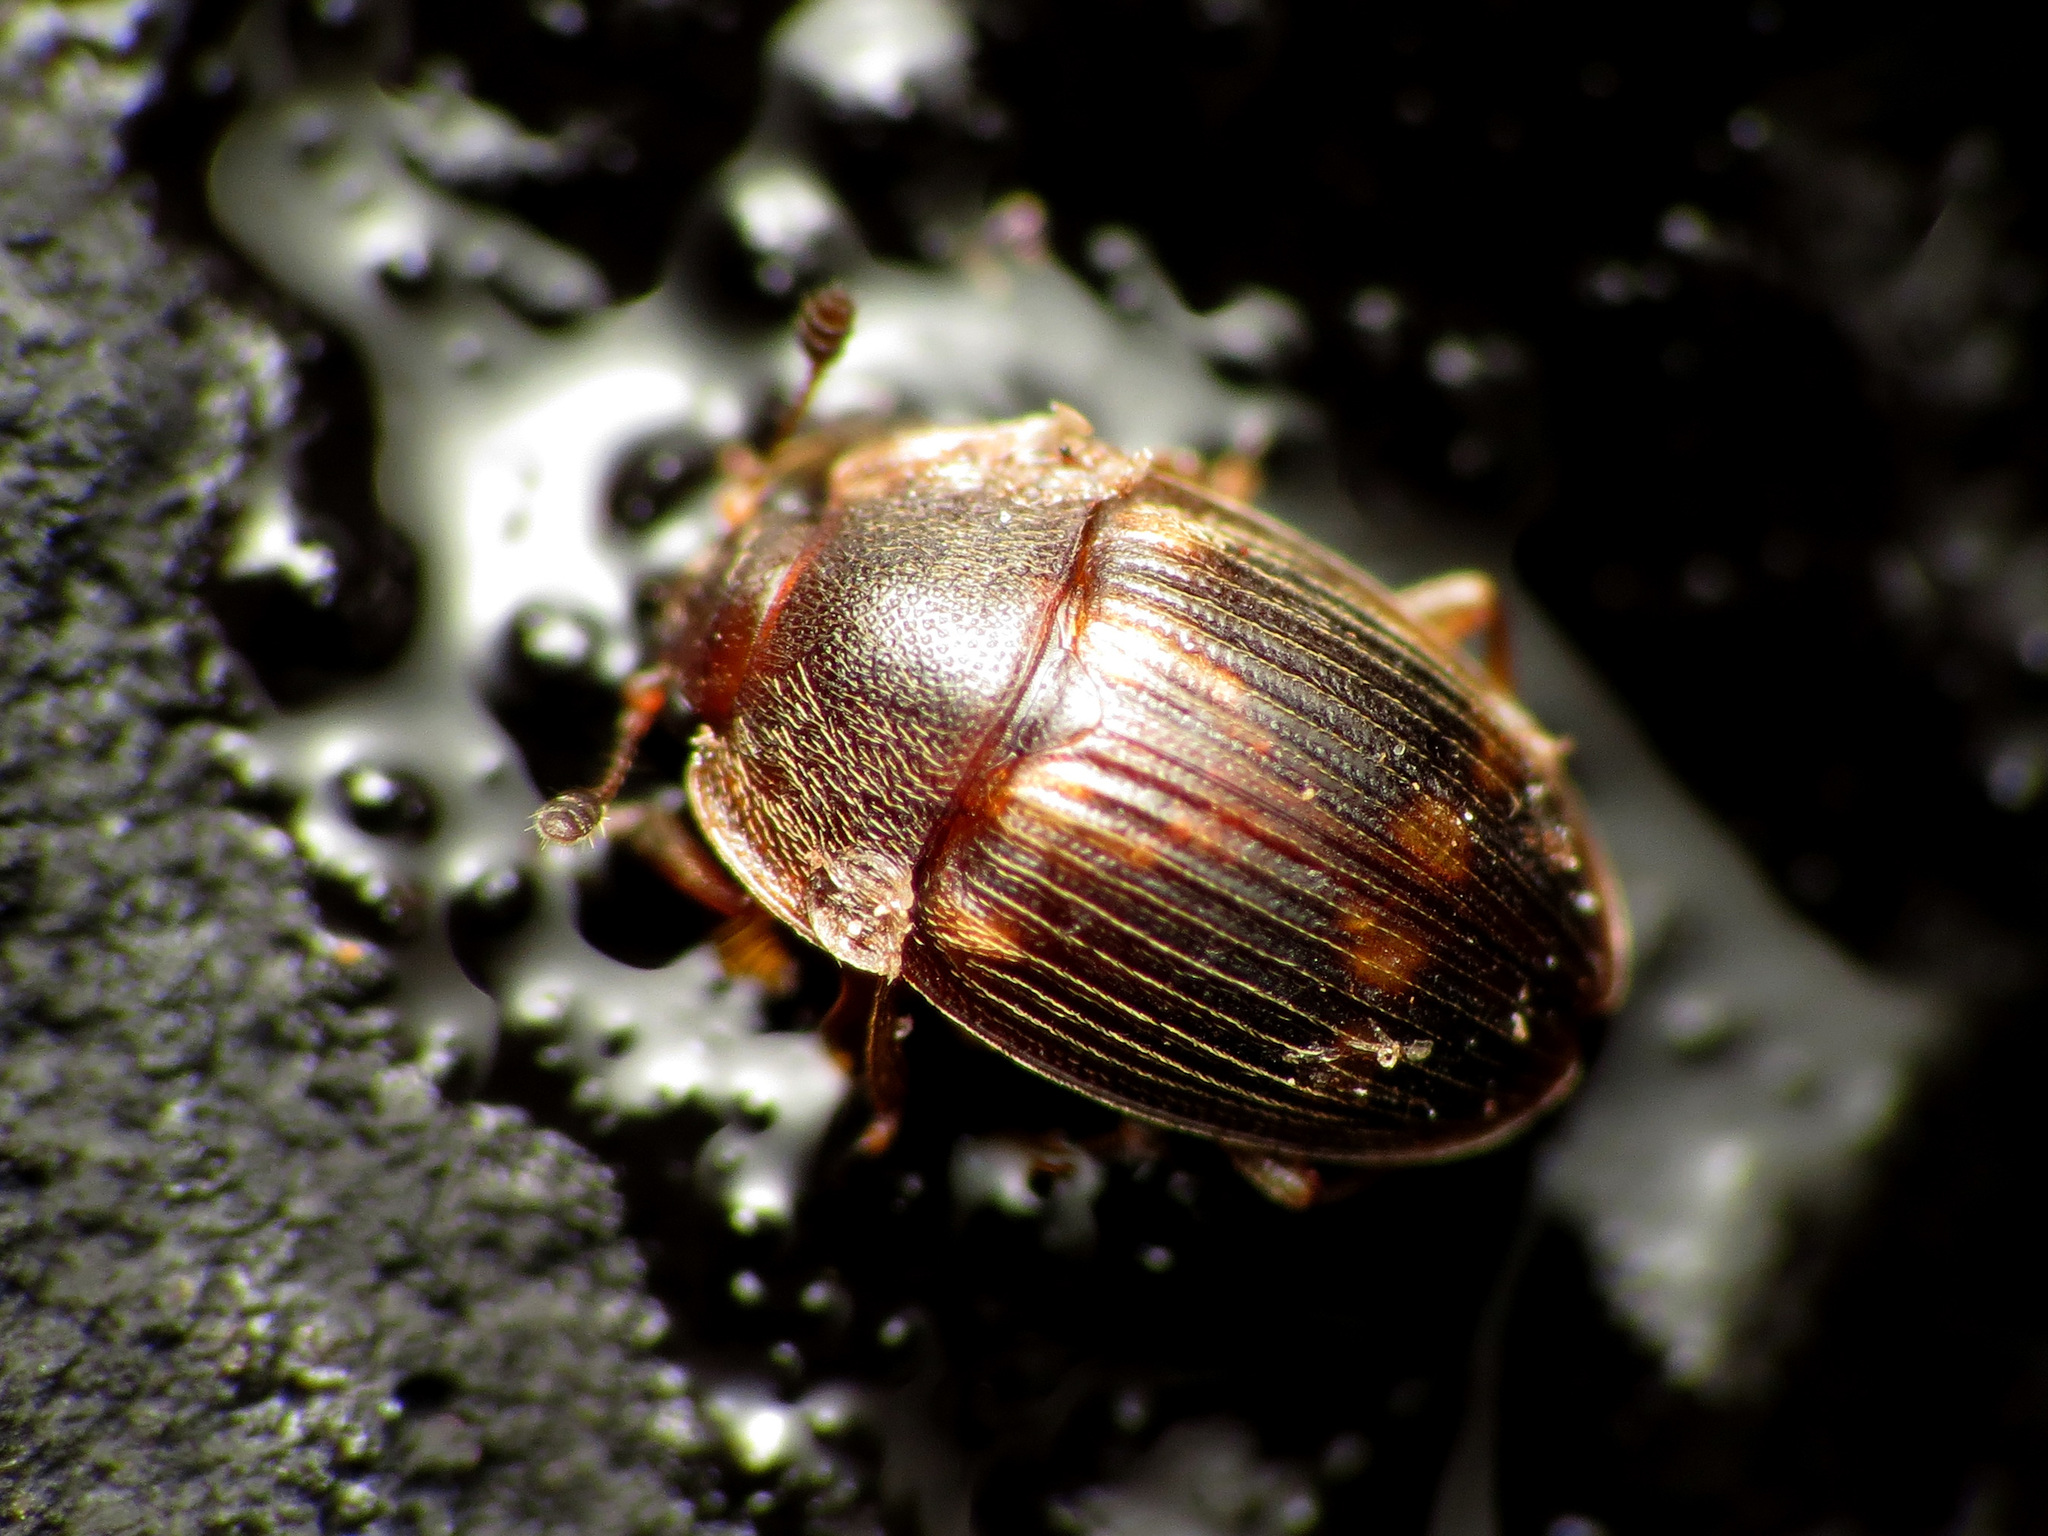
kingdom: Animalia
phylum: Arthropoda
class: Insecta
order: Coleoptera
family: Nitidulidae
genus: Stelidota
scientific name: Stelidota geminata
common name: Strawberry sap beetle
